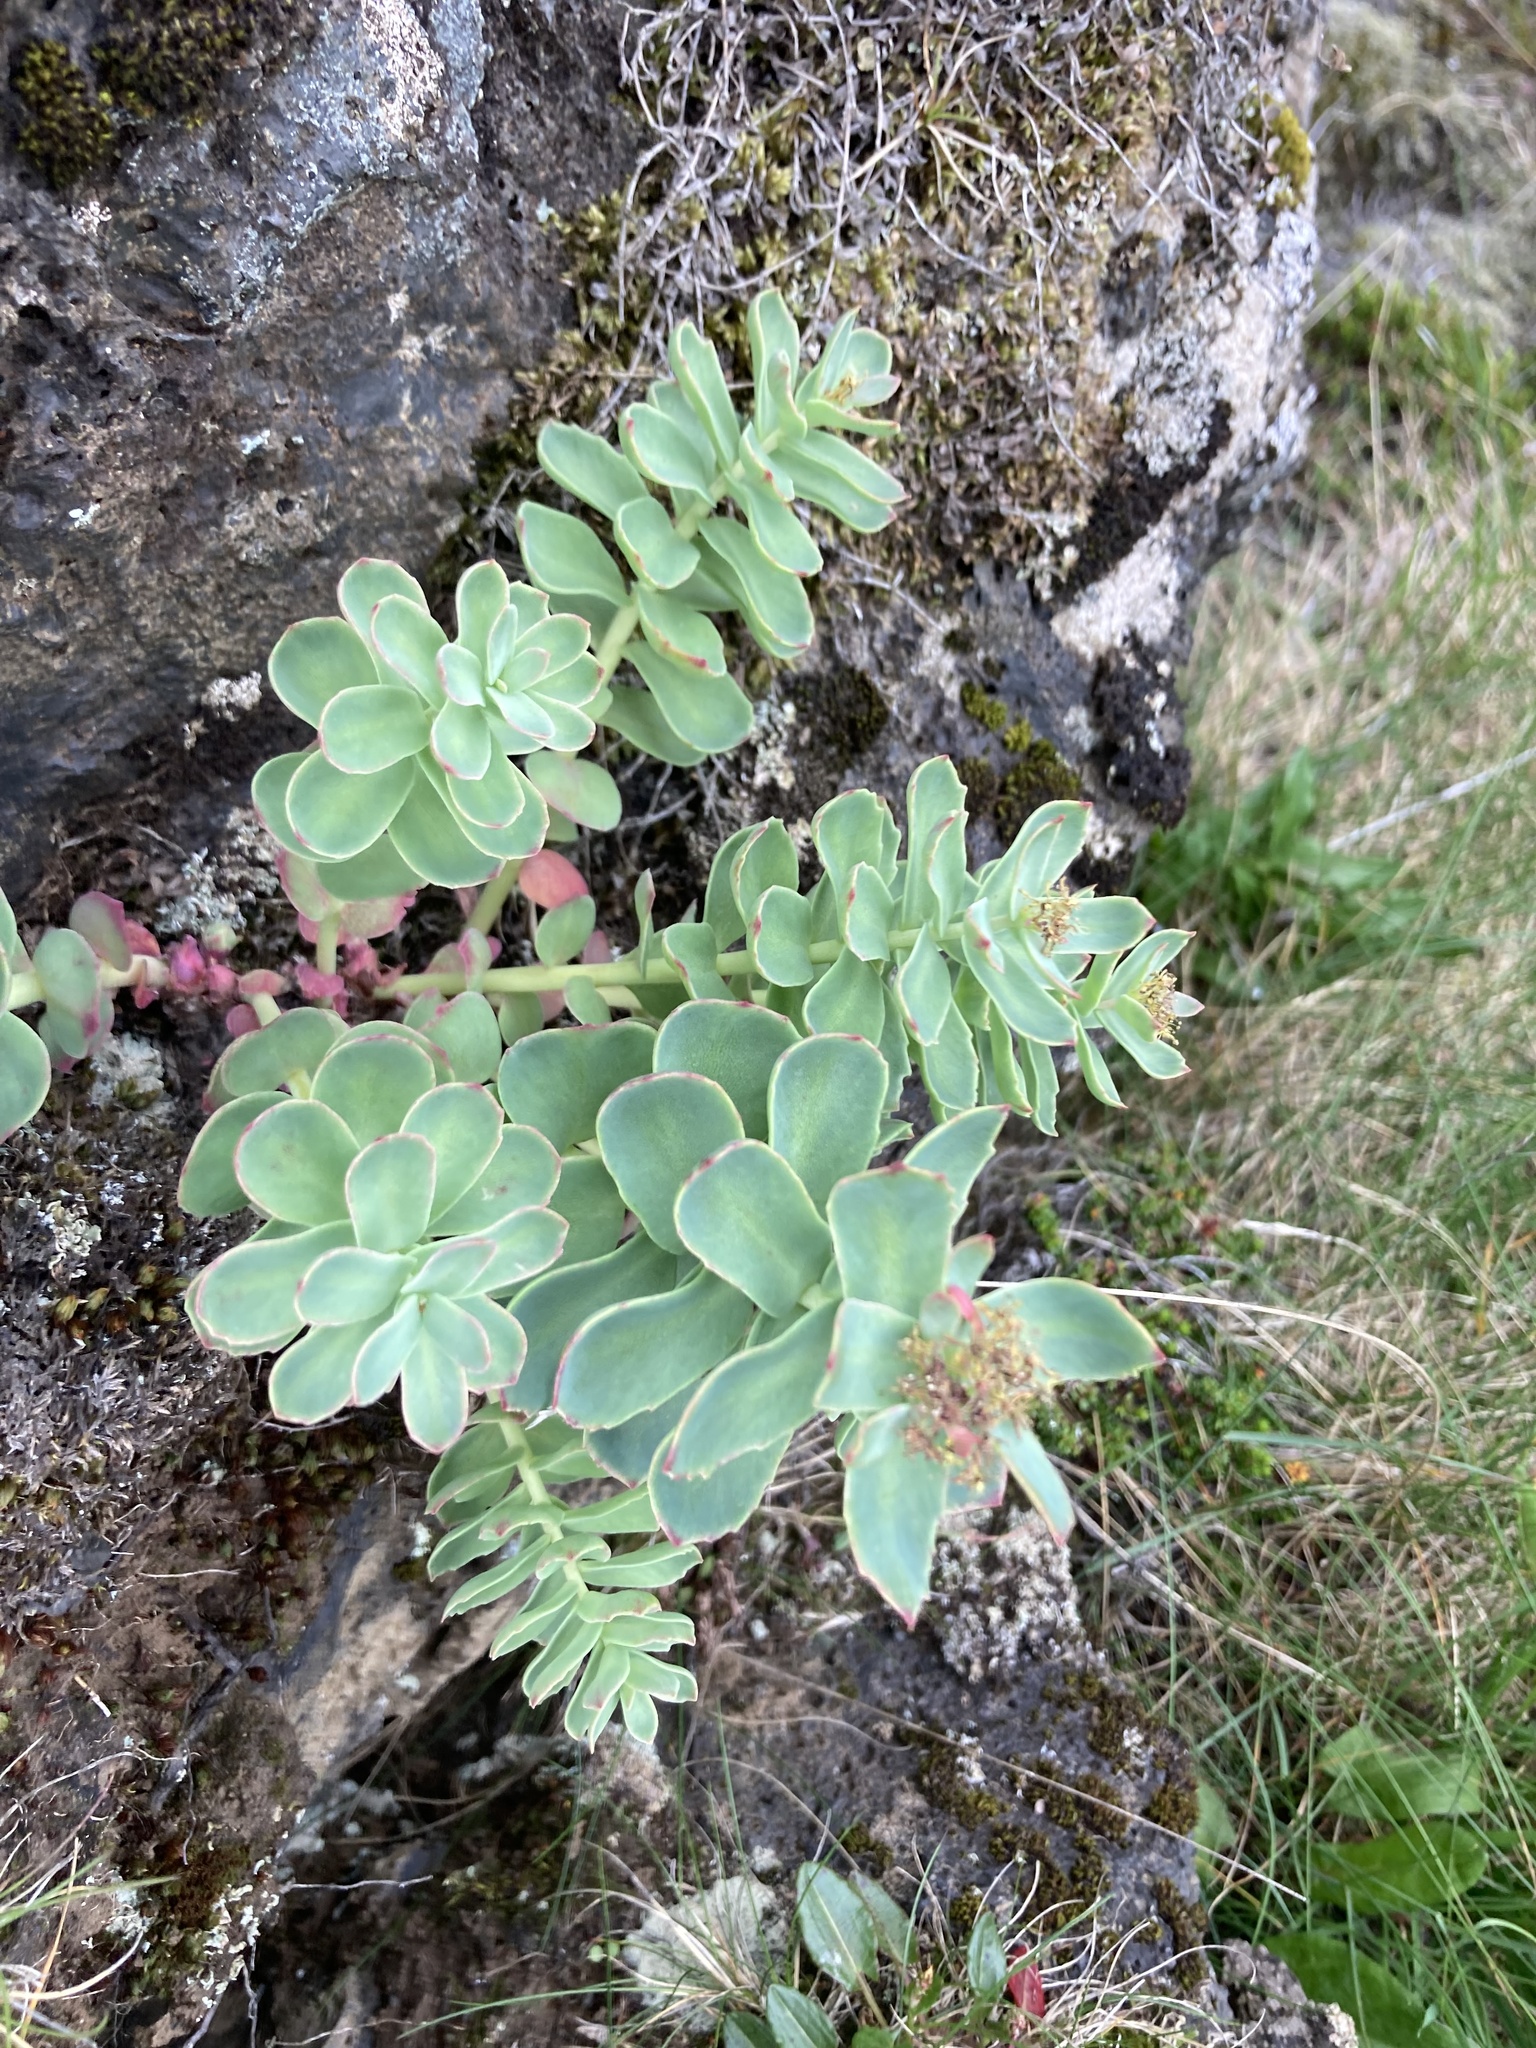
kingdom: Plantae
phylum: Tracheophyta
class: Magnoliopsida
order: Saxifragales
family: Crassulaceae
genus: Rhodiola
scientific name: Rhodiola rosea
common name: Roseroot
